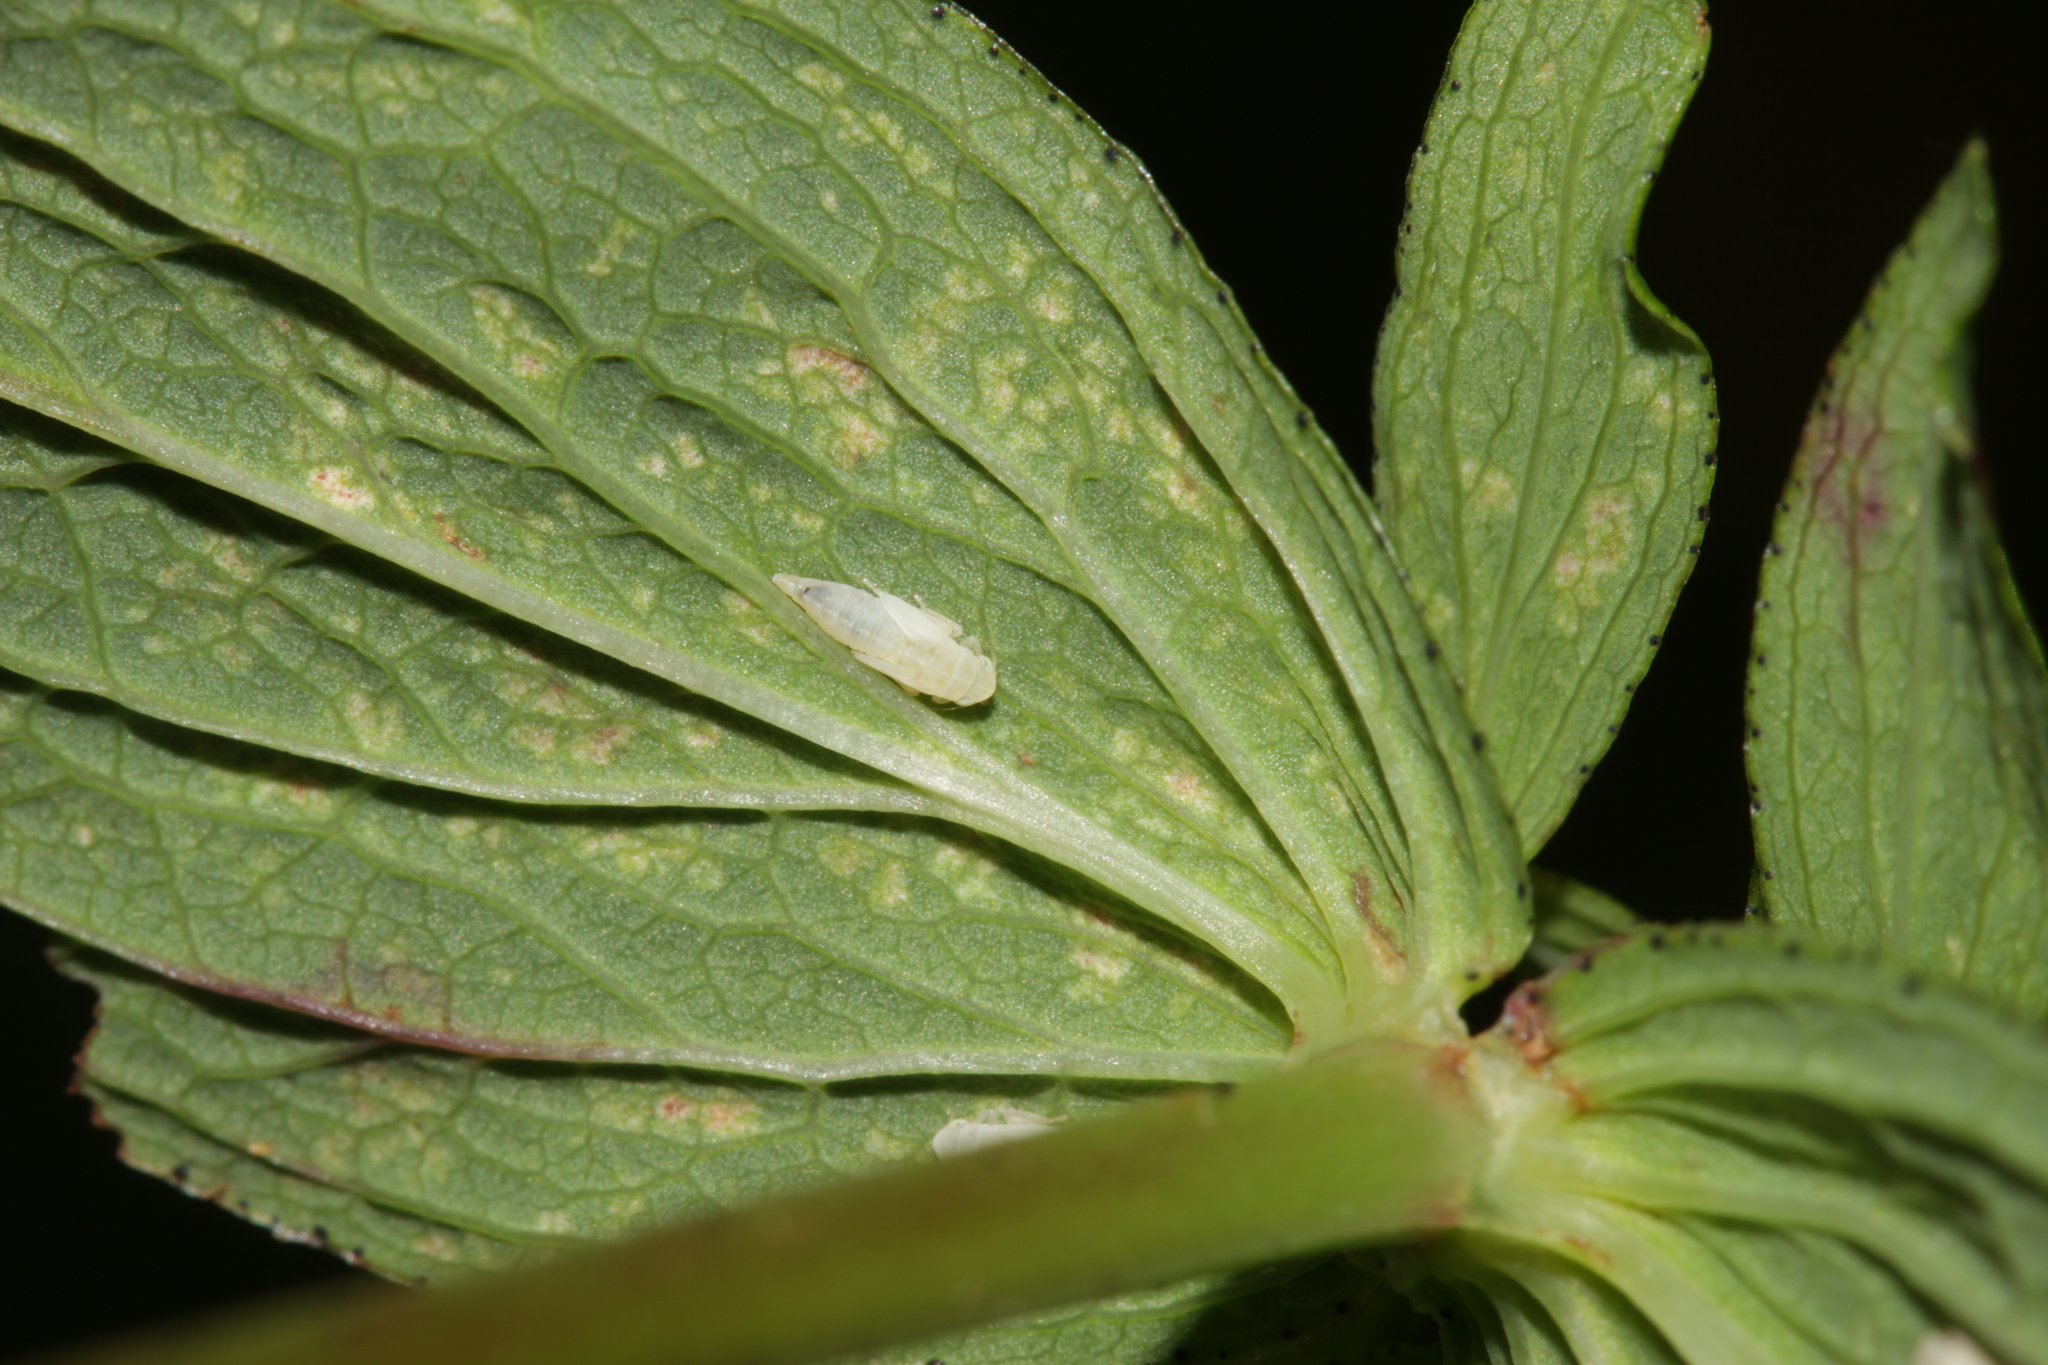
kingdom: Animalia
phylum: Arthropoda
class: Insecta
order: Hemiptera
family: Cicadellidae
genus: Zygina
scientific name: Zygina hypermaculata
